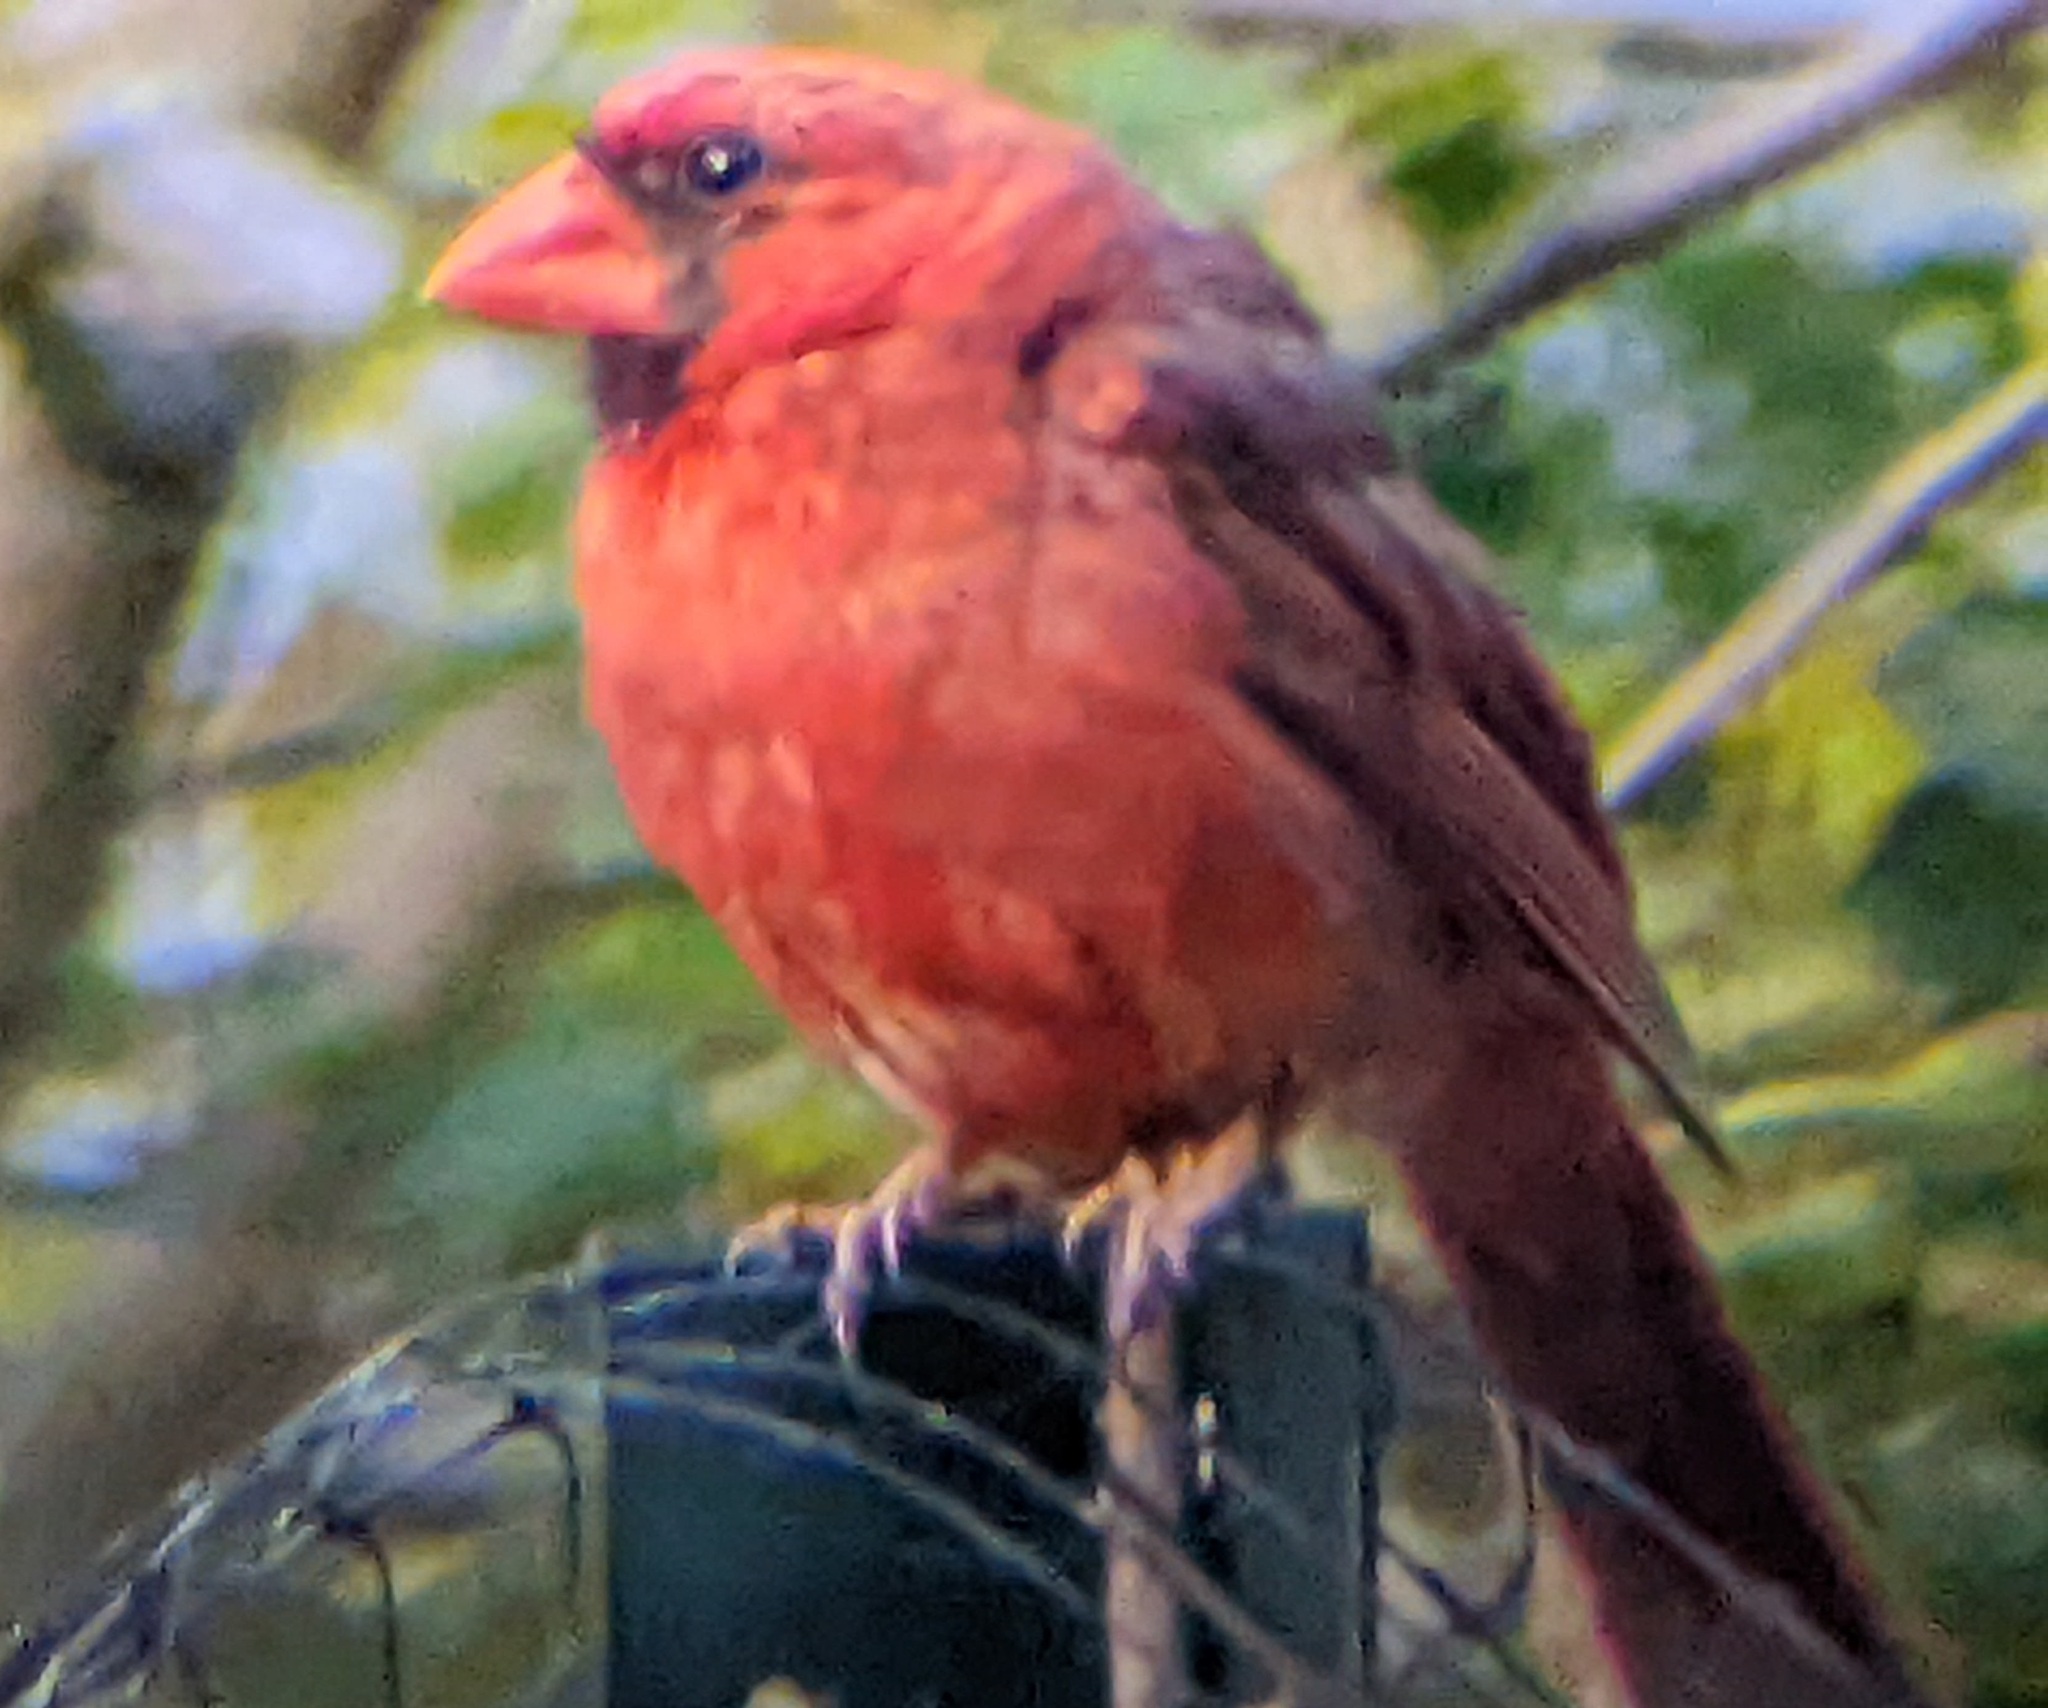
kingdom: Animalia
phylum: Chordata
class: Aves
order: Passeriformes
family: Cardinalidae
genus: Cardinalis
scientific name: Cardinalis cardinalis
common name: Northern cardinal
